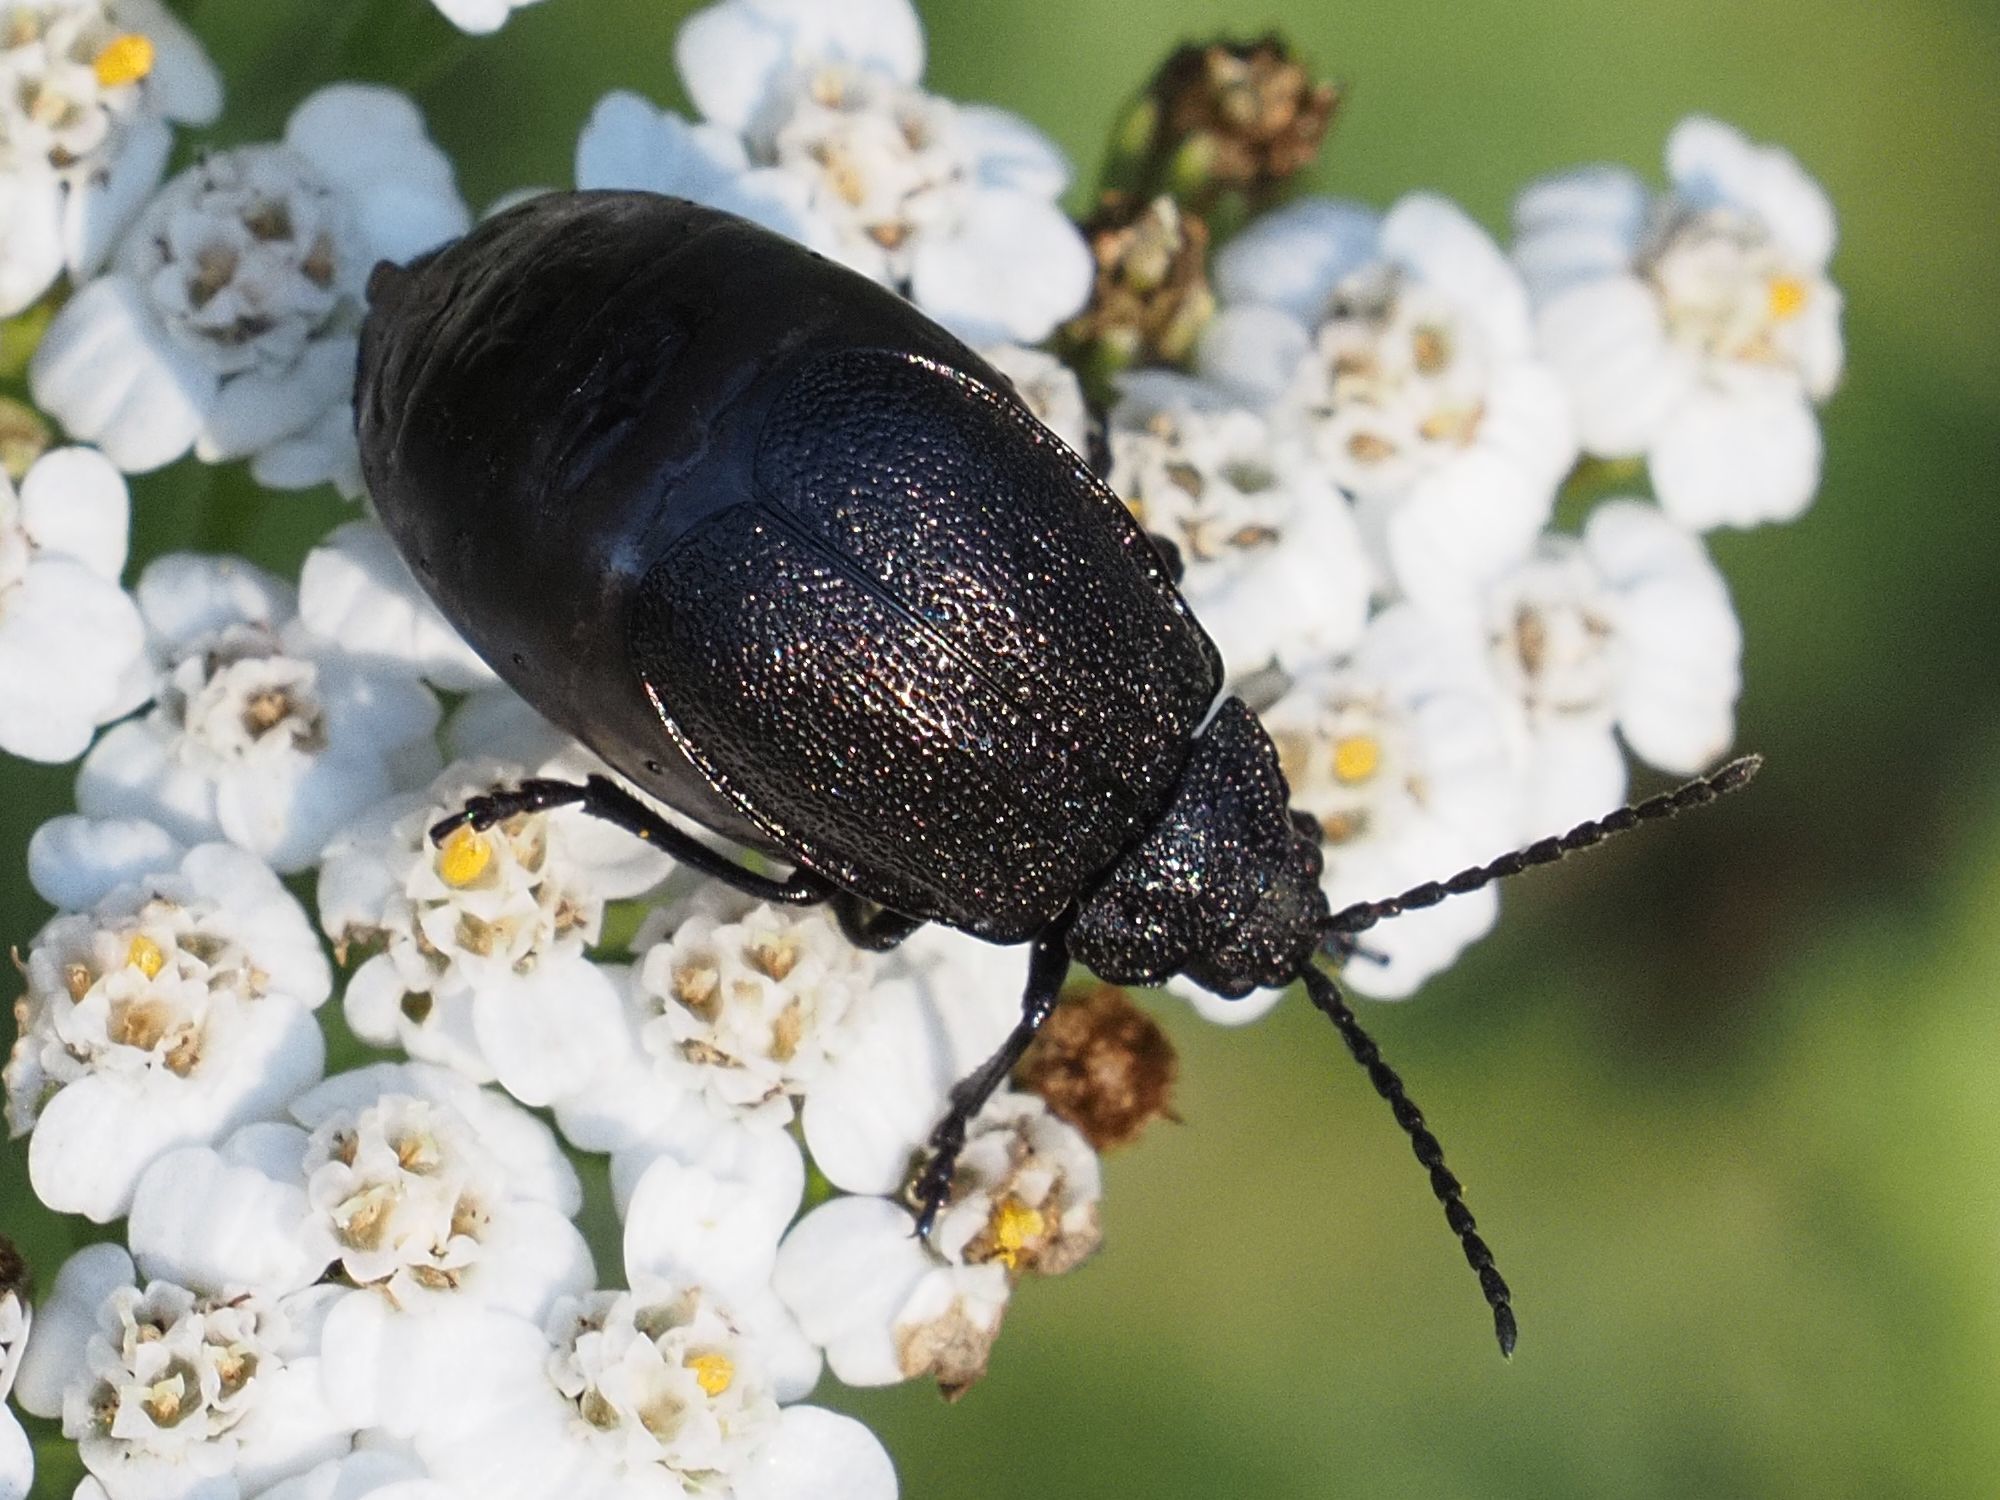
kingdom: Animalia
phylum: Arthropoda
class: Insecta
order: Coleoptera
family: Chrysomelidae
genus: Galeruca
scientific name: Galeruca tanaceti
